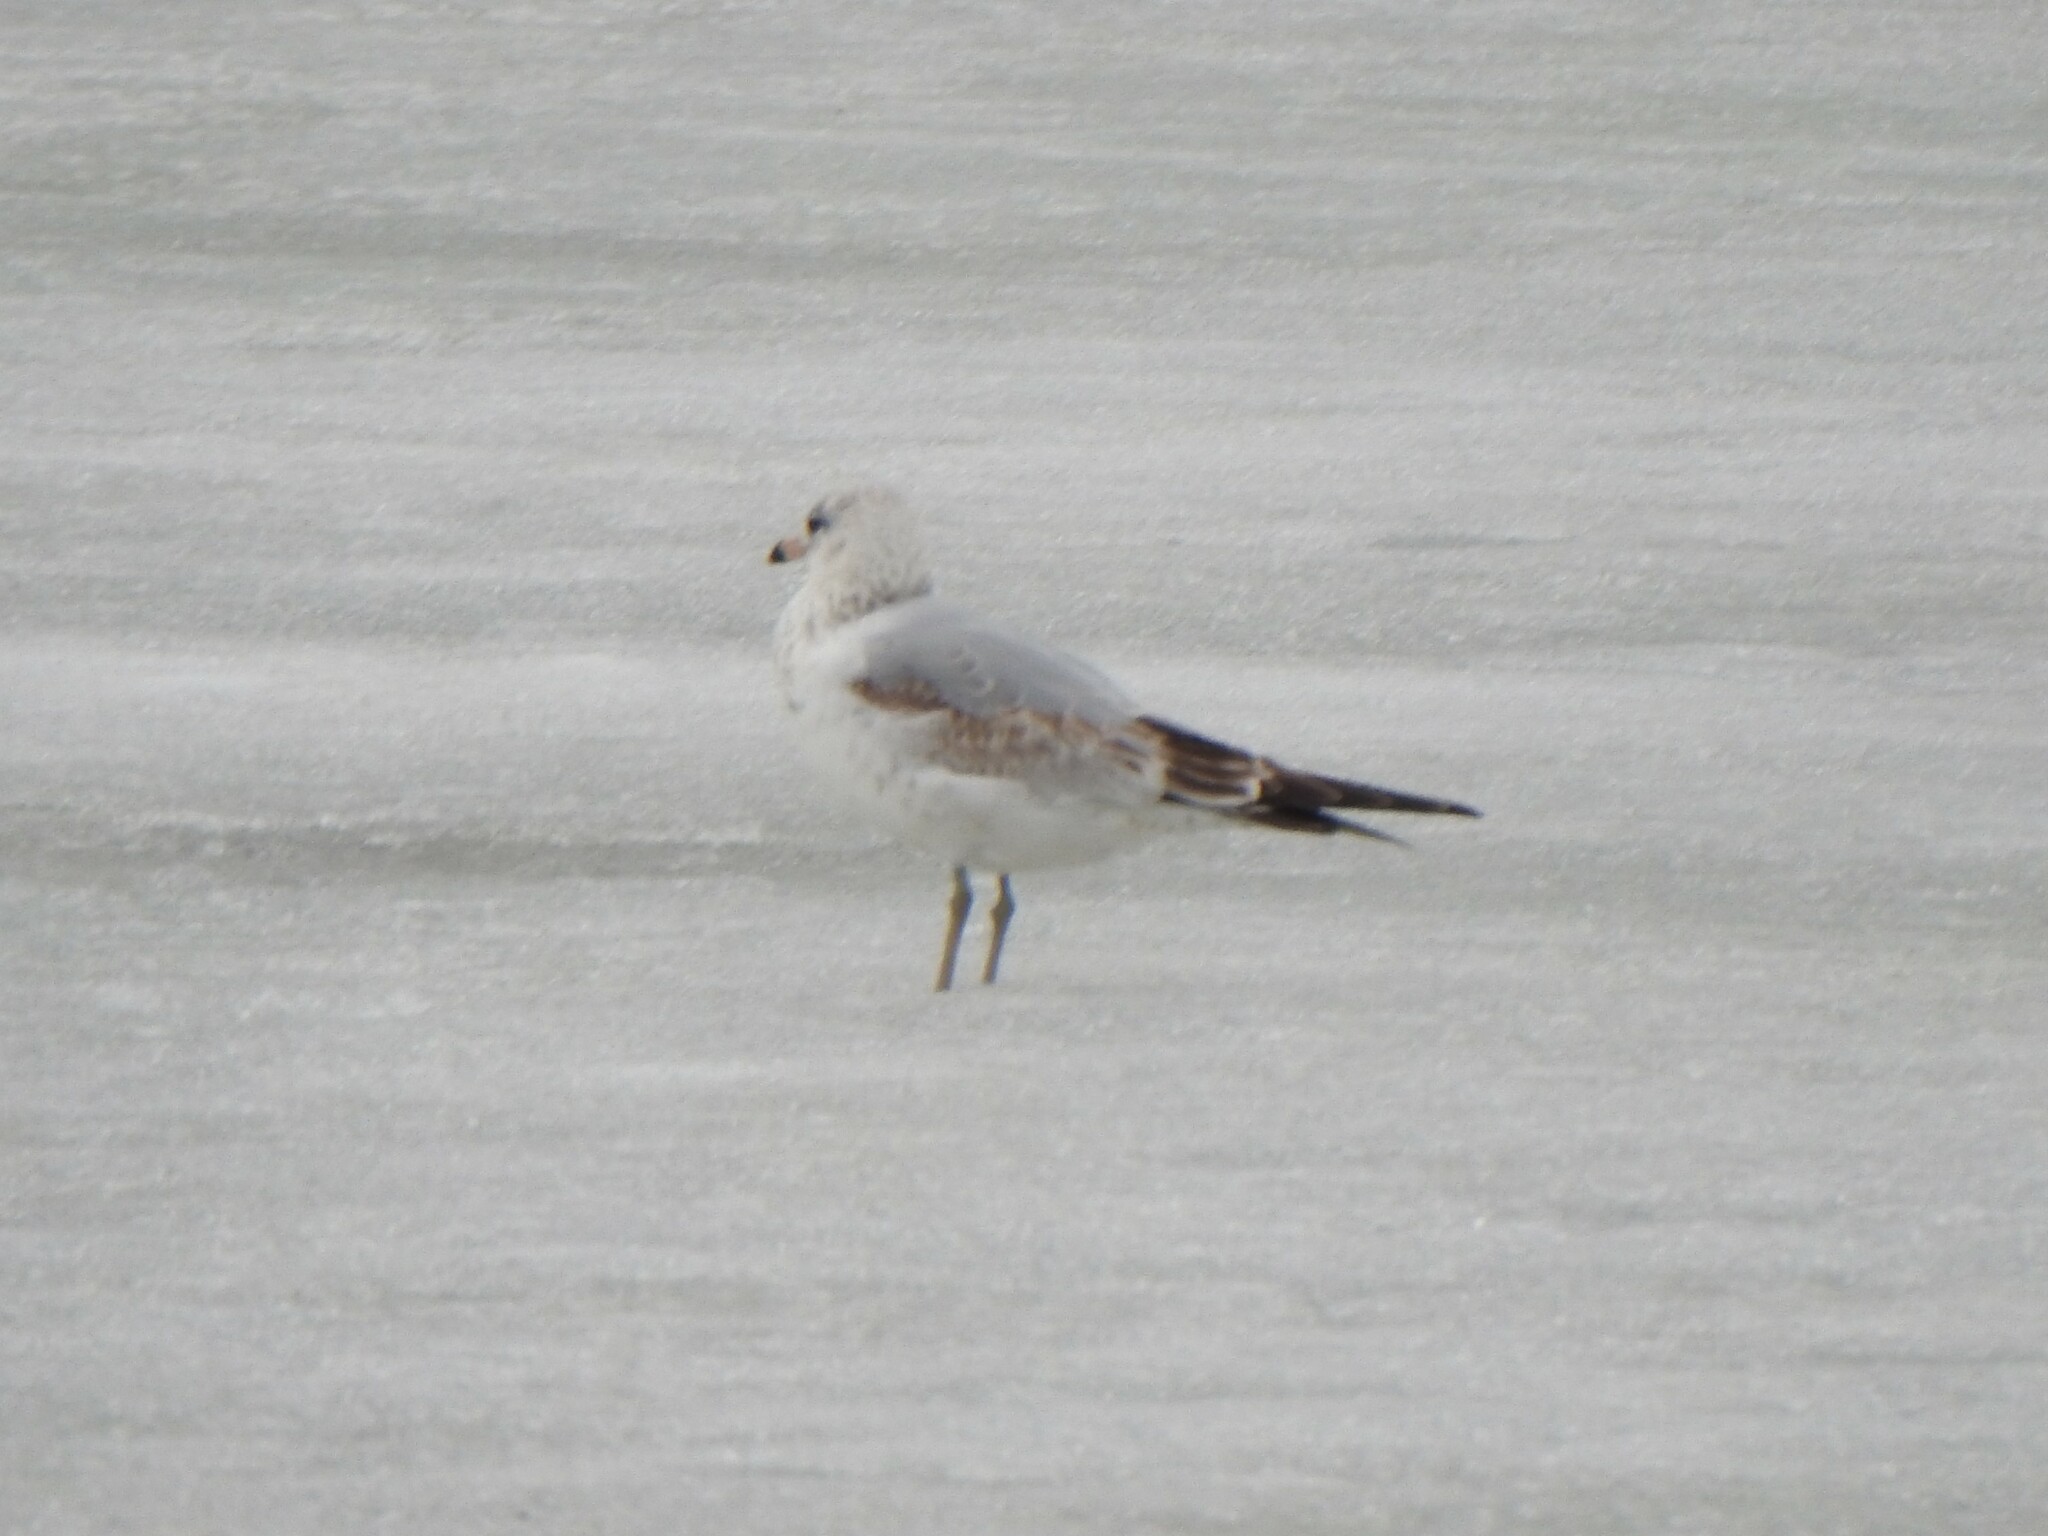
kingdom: Animalia
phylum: Chordata
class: Aves
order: Charadriiformes
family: Laridae
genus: Larus
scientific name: Larus delawarensis
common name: Ring-billed gull
